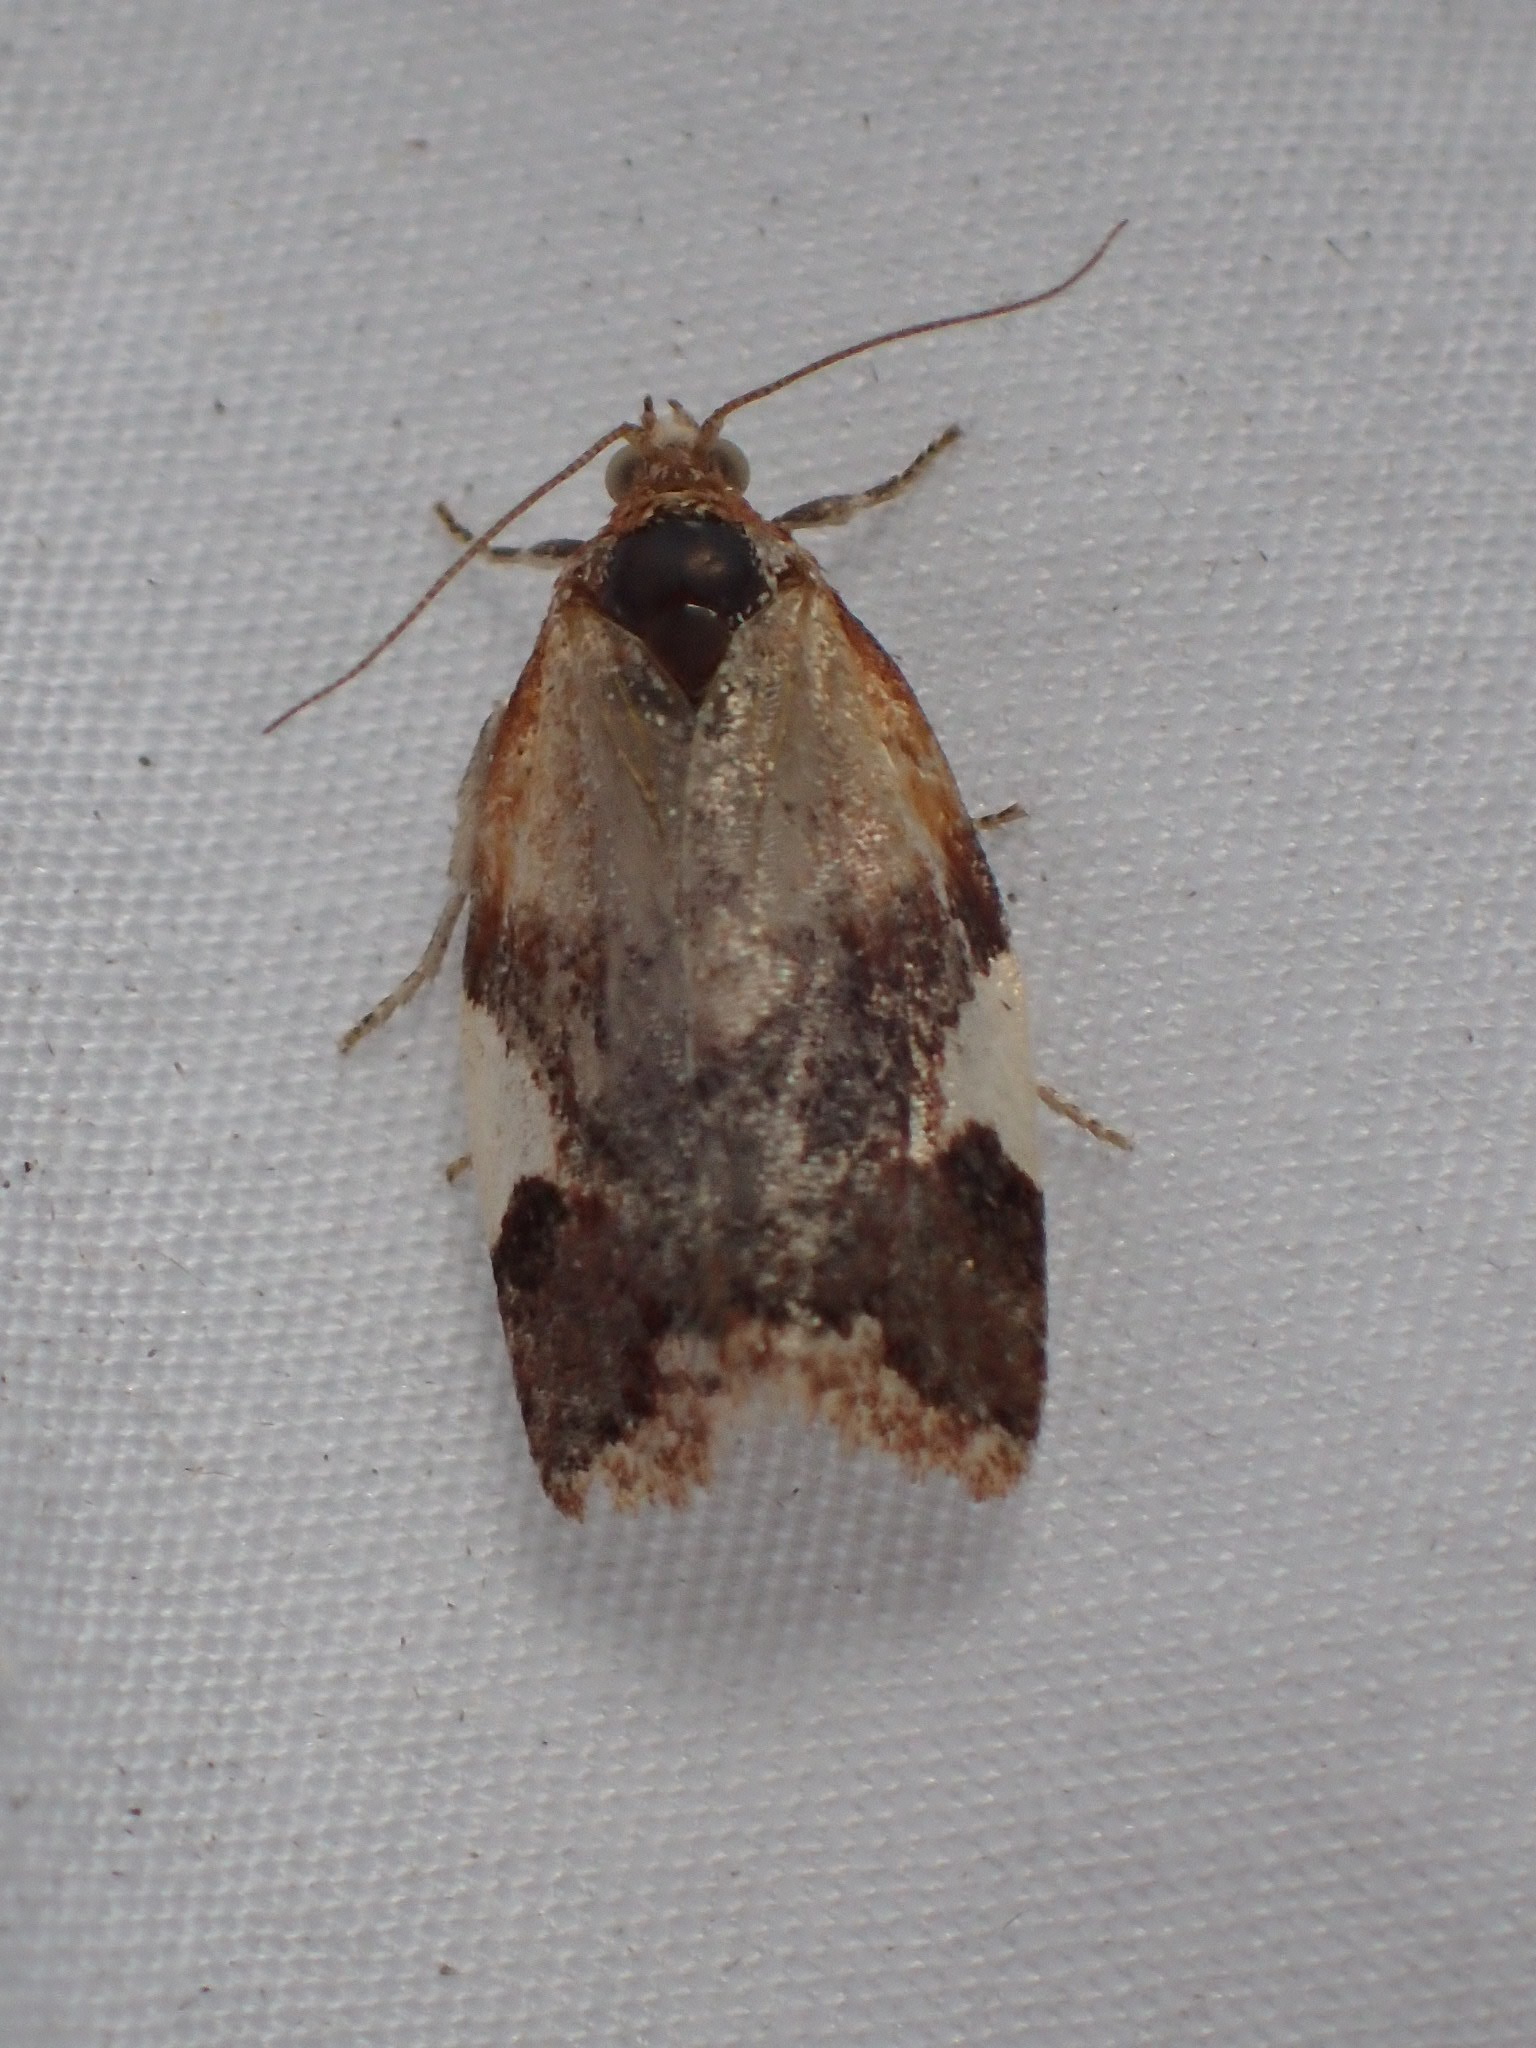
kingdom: Animalia
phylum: Arthropoda
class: Insecta
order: Lepidoptera
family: Tortricidae
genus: Clepsis
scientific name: Clepsis persicana
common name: White triangle tortrix
